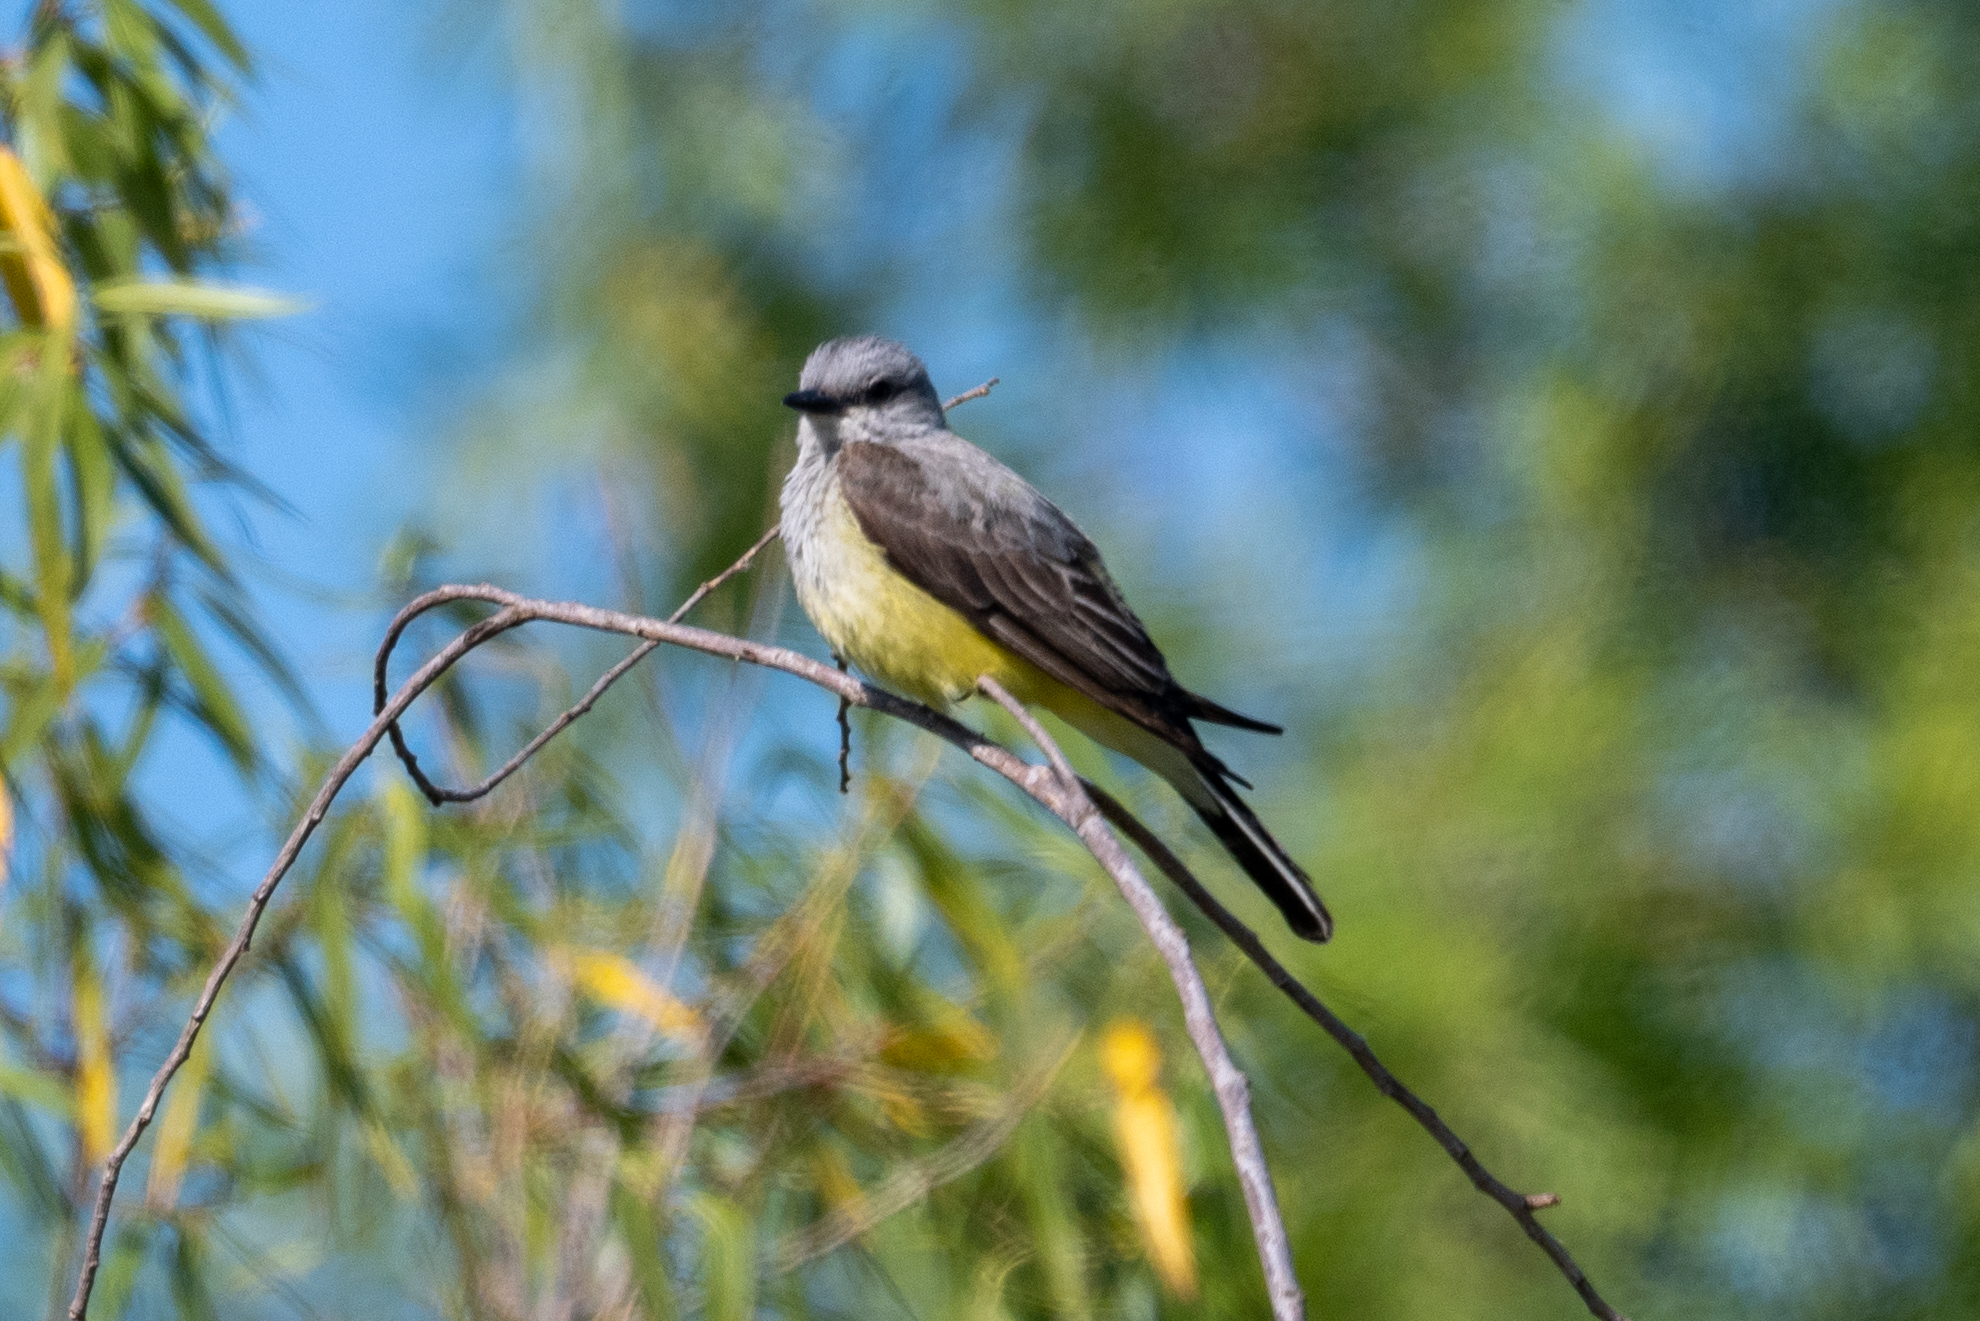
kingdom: Animalia
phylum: Chordata
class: Aves
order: Passeriformes
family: Tyrannidae
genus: Tyrannus
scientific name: Tyrannus verticalis
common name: Western kingbird
